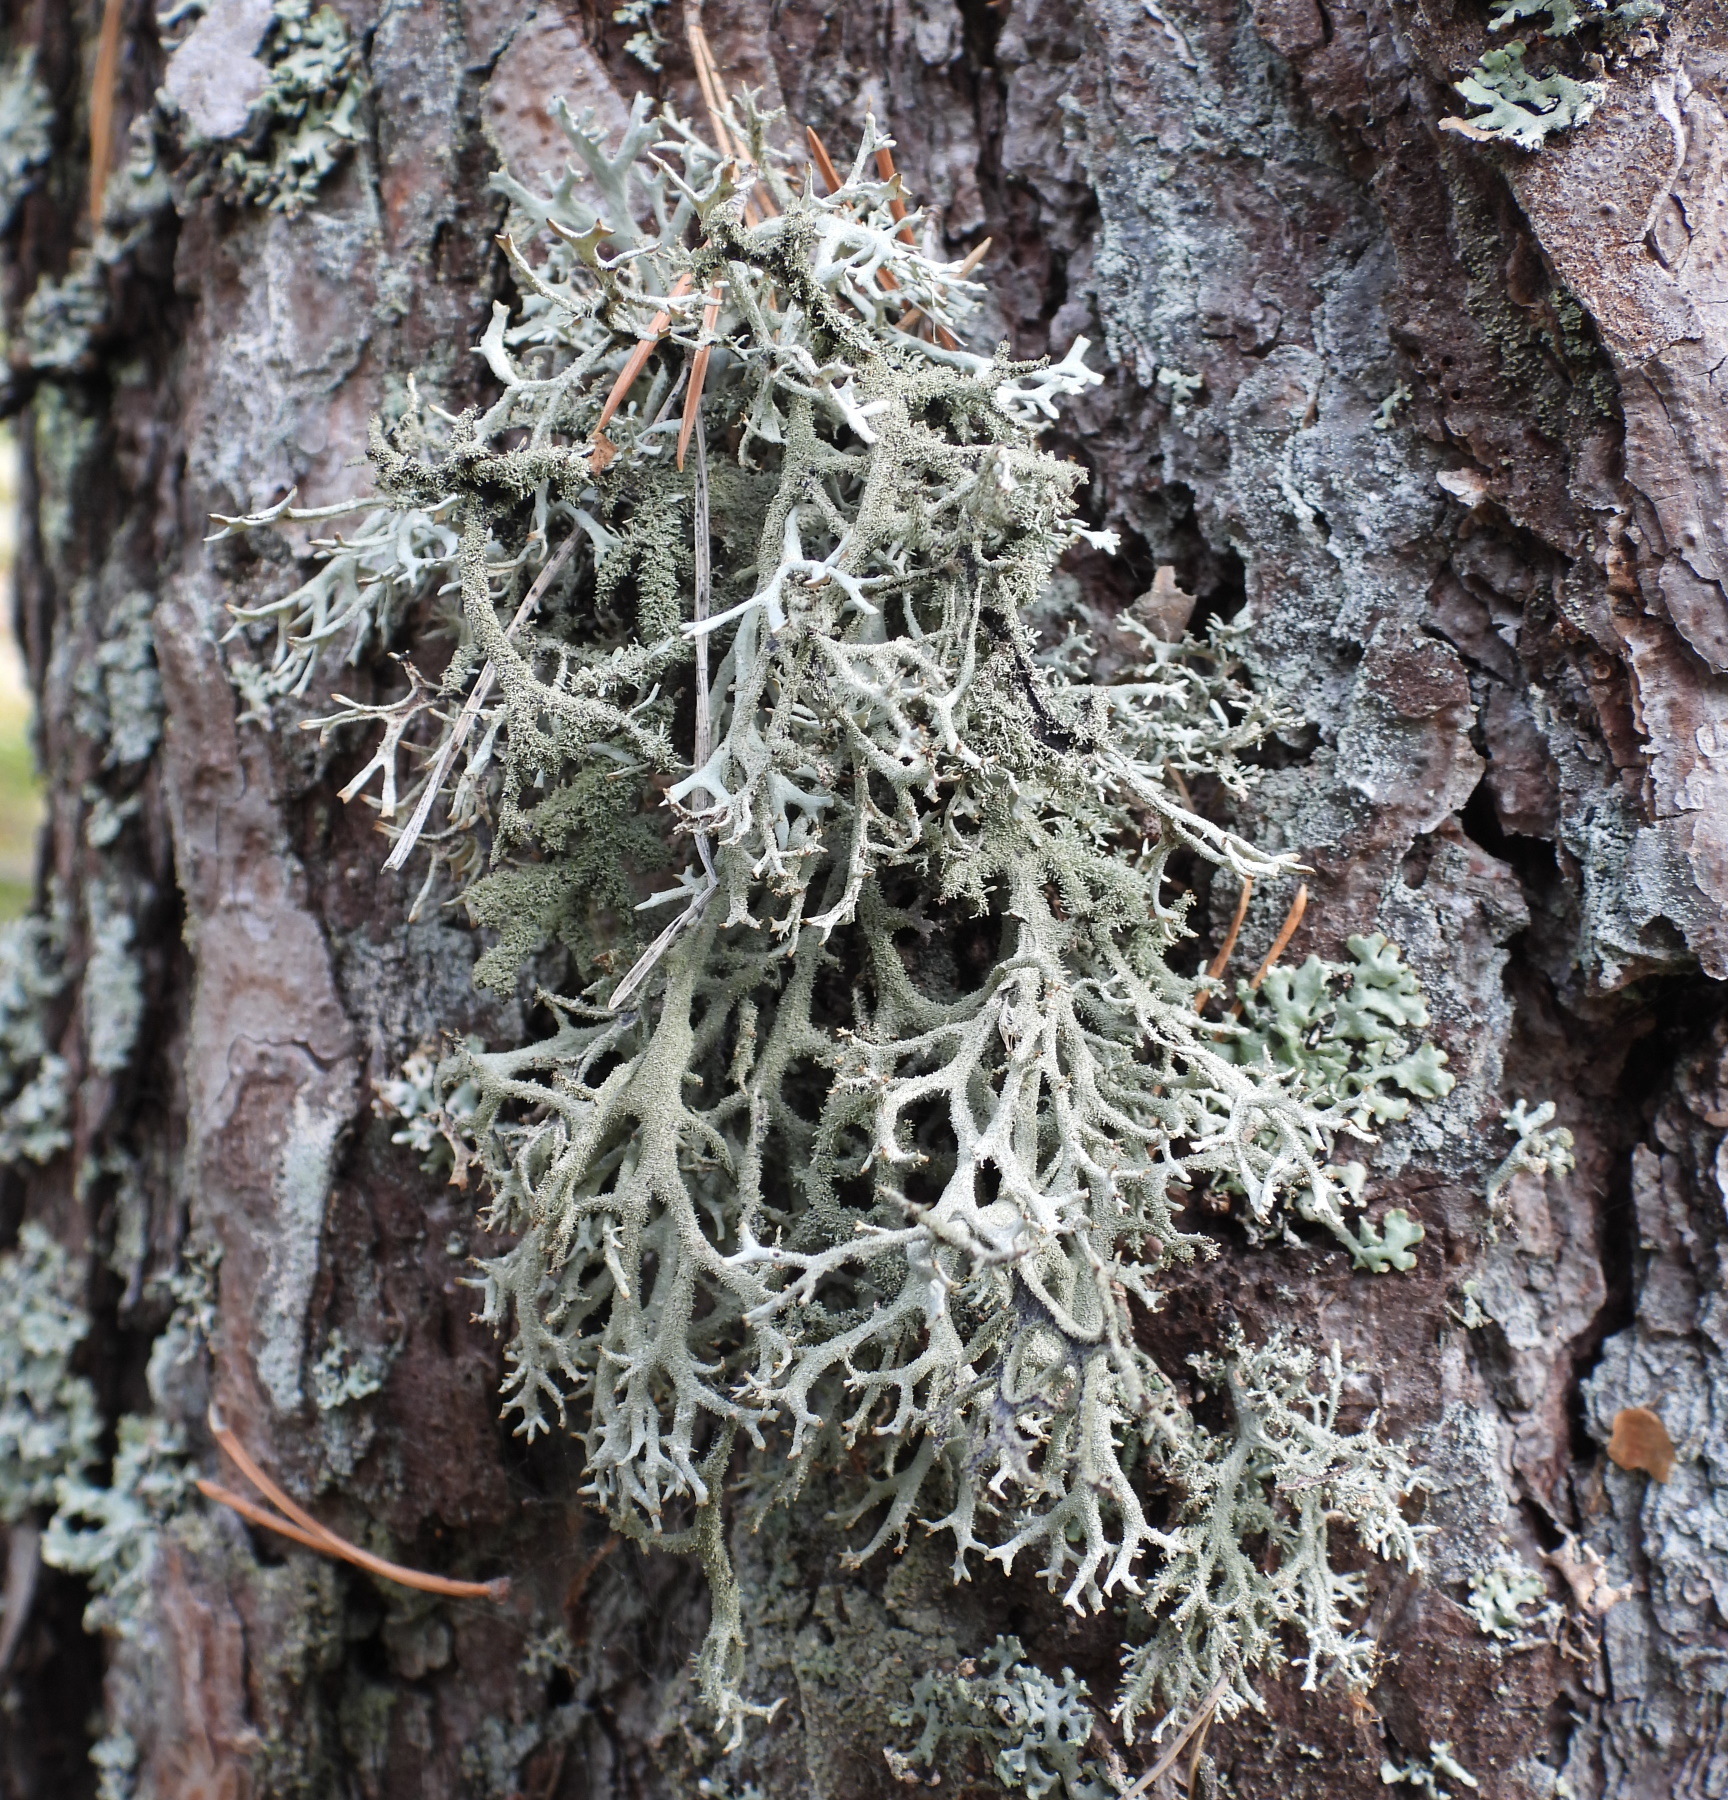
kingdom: Fungi
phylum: Ascomycota
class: Lecanoromycetes
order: Lecanorales
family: Parmeliaceae
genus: Pseudevernia
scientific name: Pseudevernia furfuracea
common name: Tree moss
